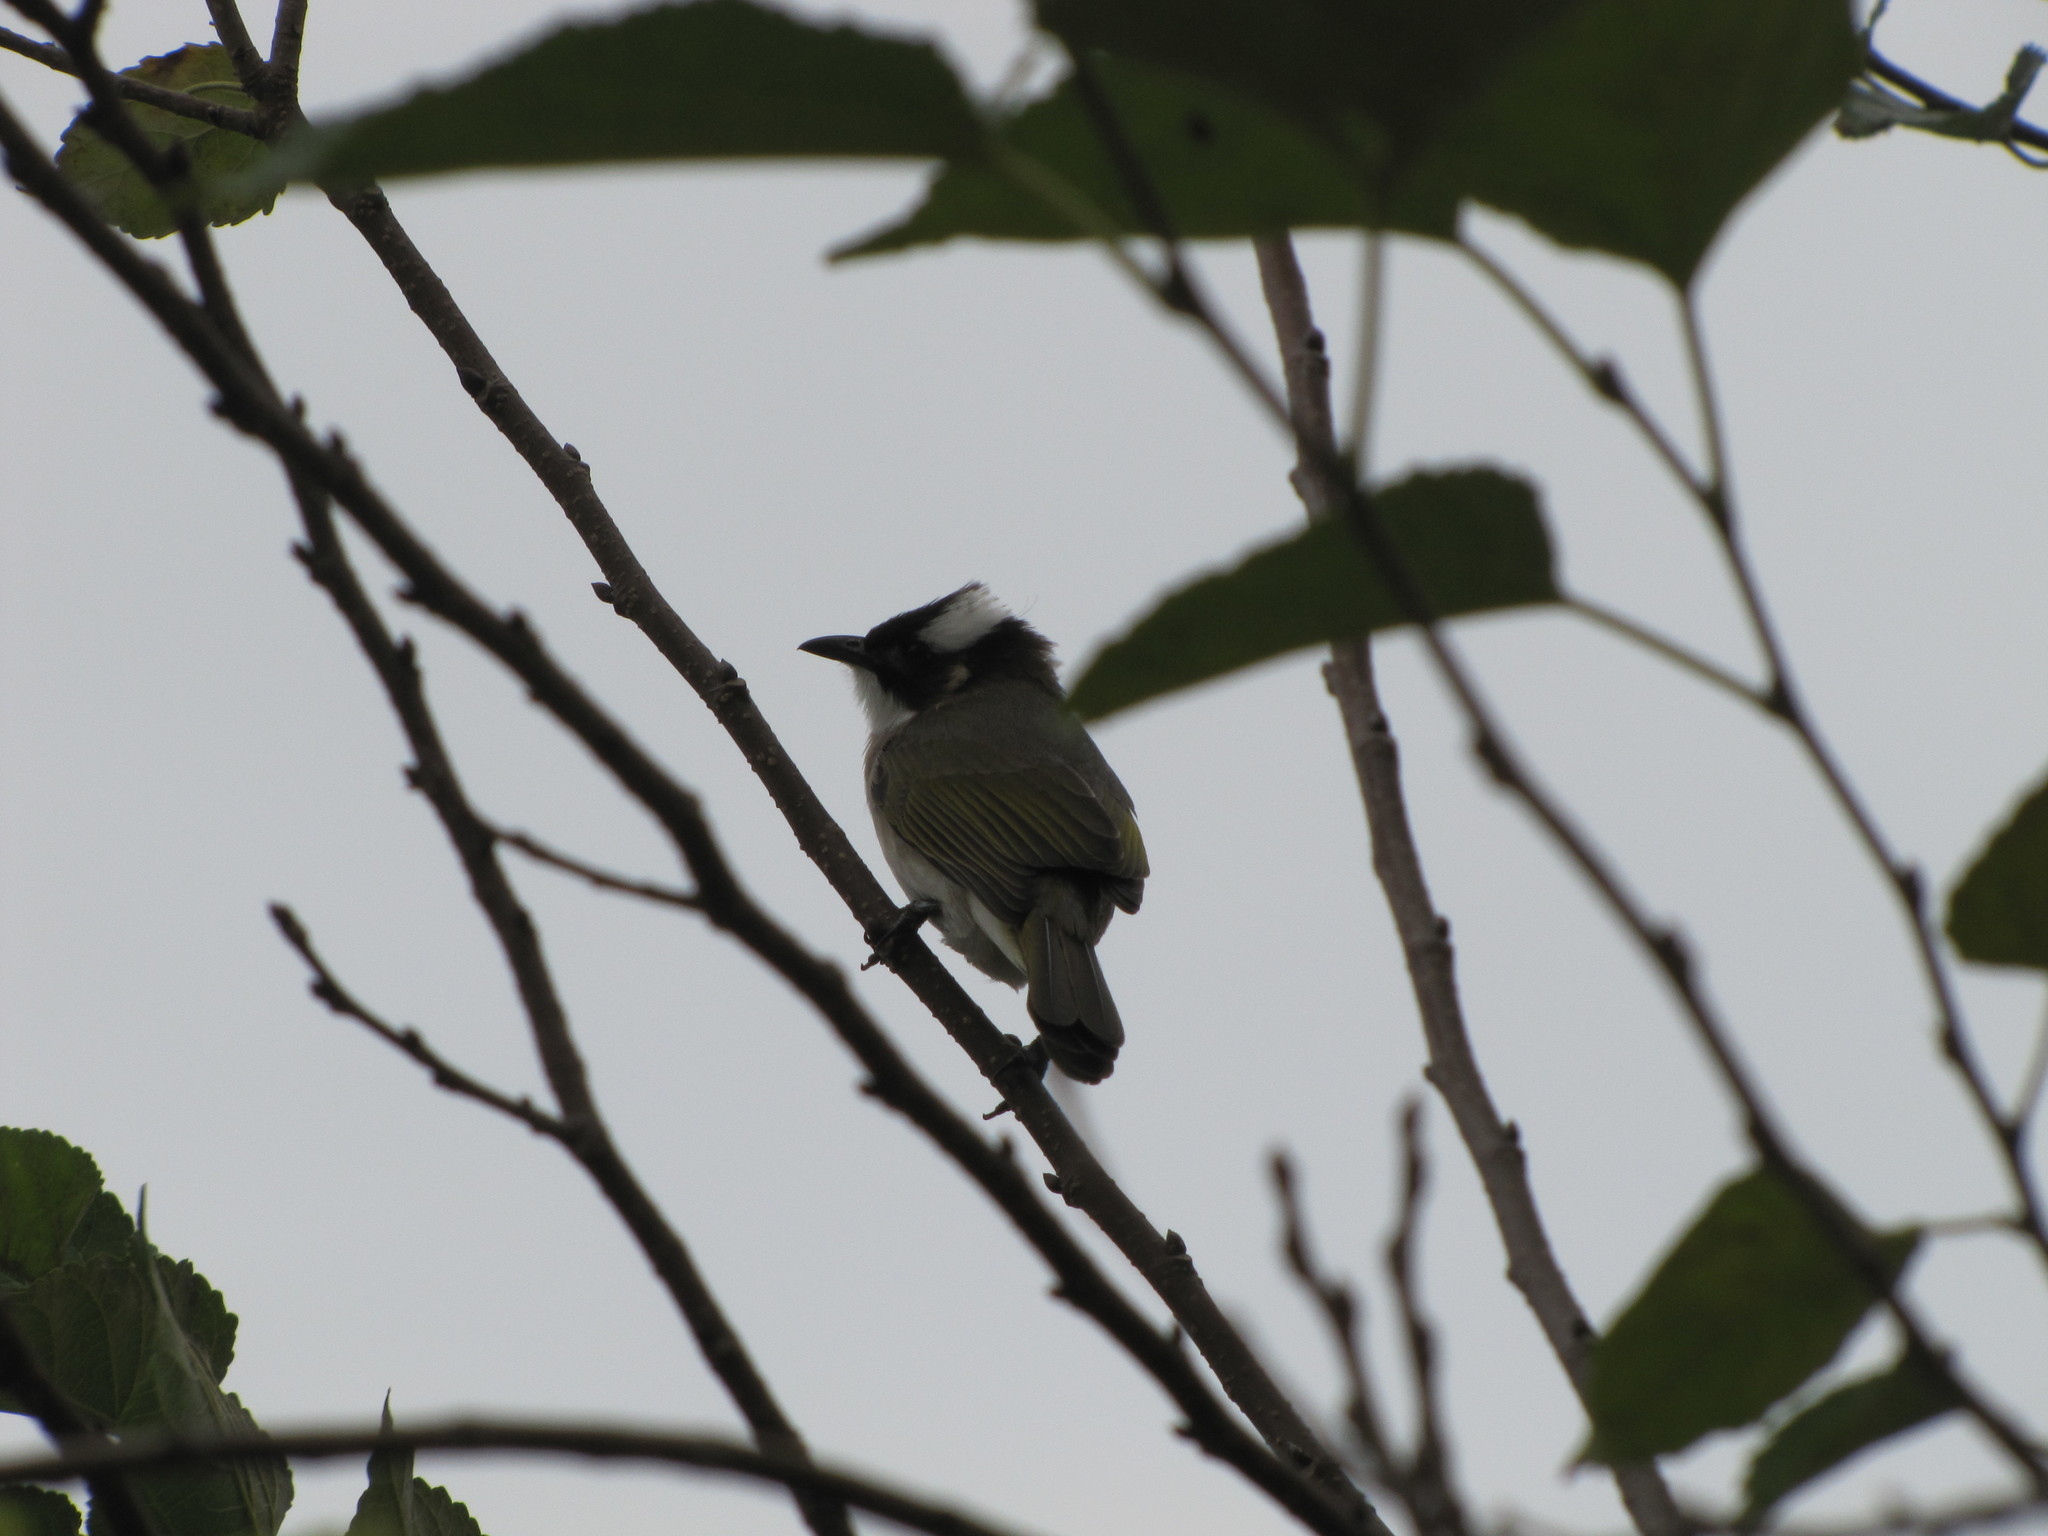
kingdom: Animalia
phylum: Chordata
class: Aves
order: Passeriformes
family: Pycnonotidae
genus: Pycnonotus
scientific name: Pycnonotus sinensis
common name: Light-vented bulbul
